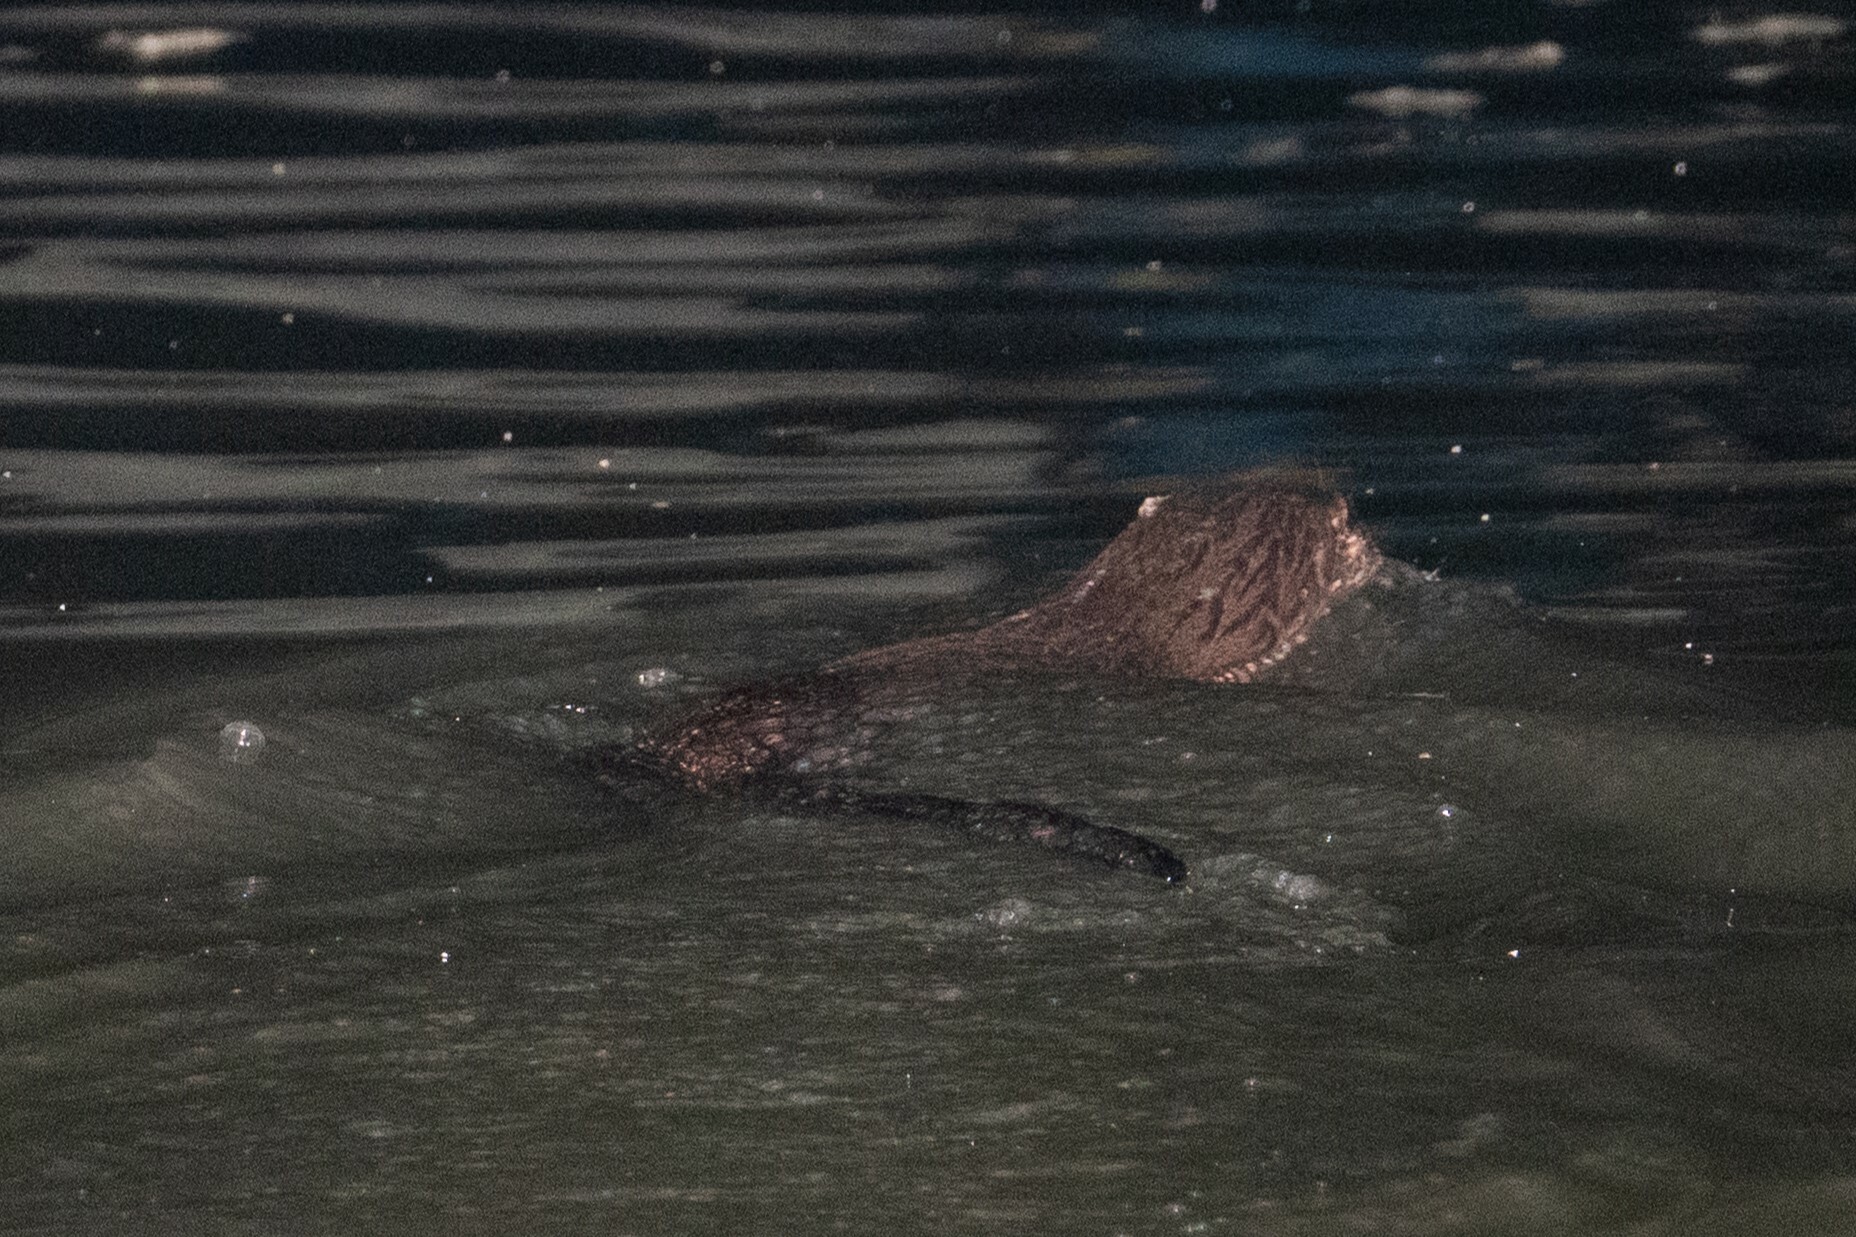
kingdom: Animalia
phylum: Chordata
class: Mammalia
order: Carnivora
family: Mustelidae
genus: Lutra
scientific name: Lutra lutra
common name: European otter
